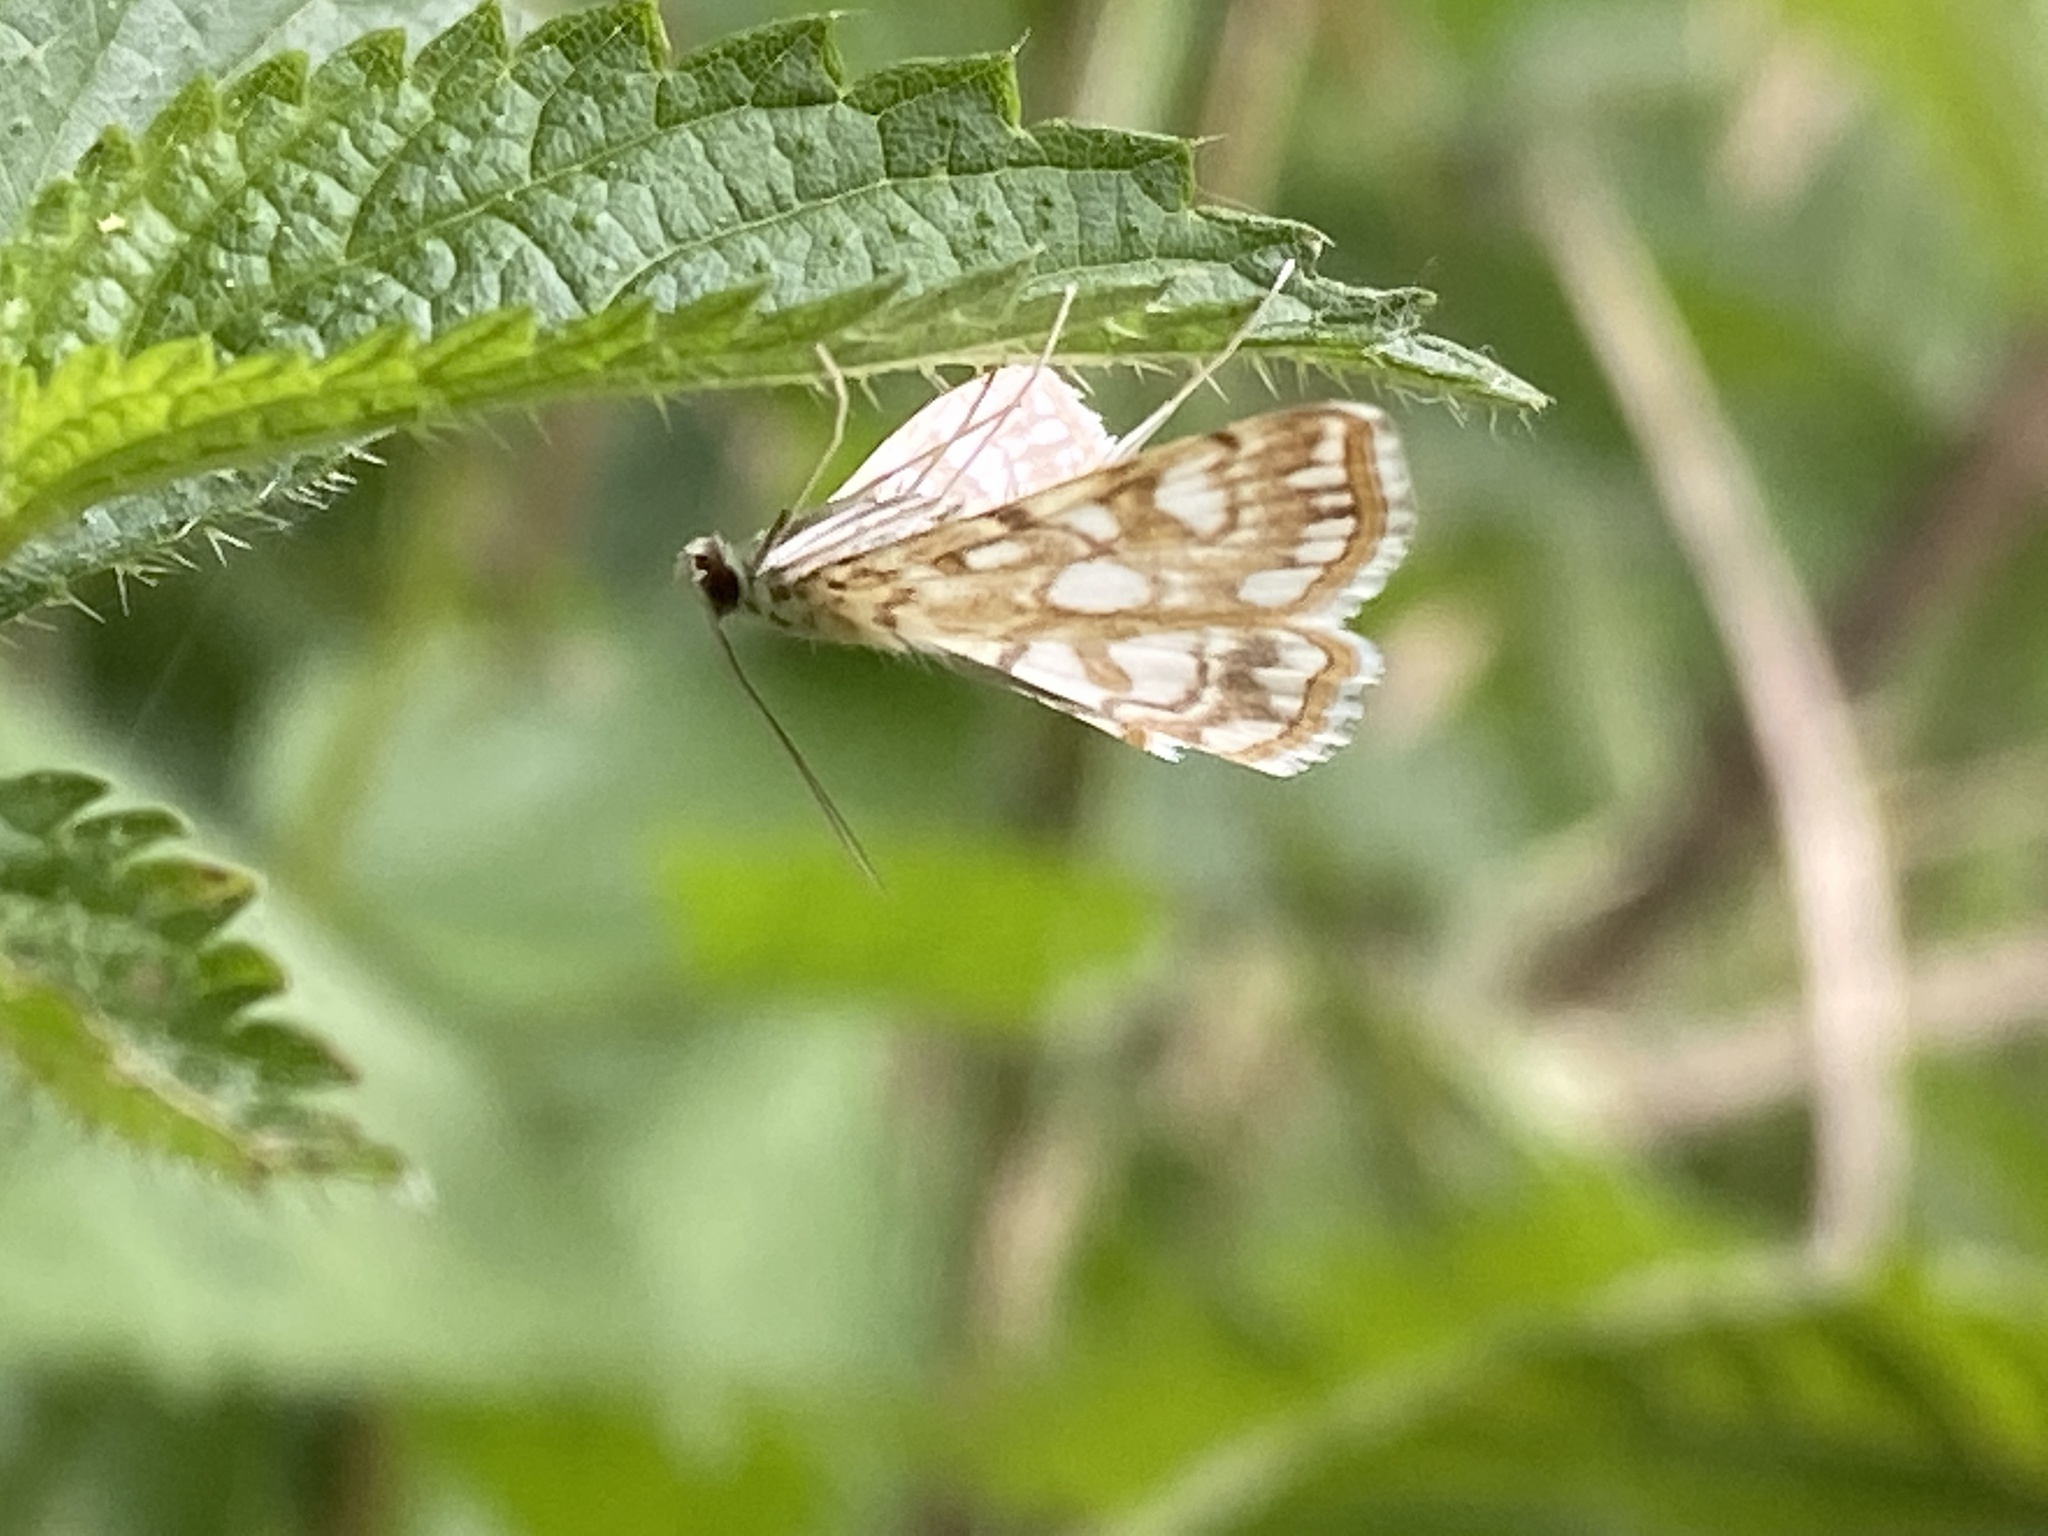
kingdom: Animalia
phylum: Arthropoda
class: Insecta
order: Lepidoptera
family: Crambidae
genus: Elophila
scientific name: Elophila nymphaeata
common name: Brown china-mark
